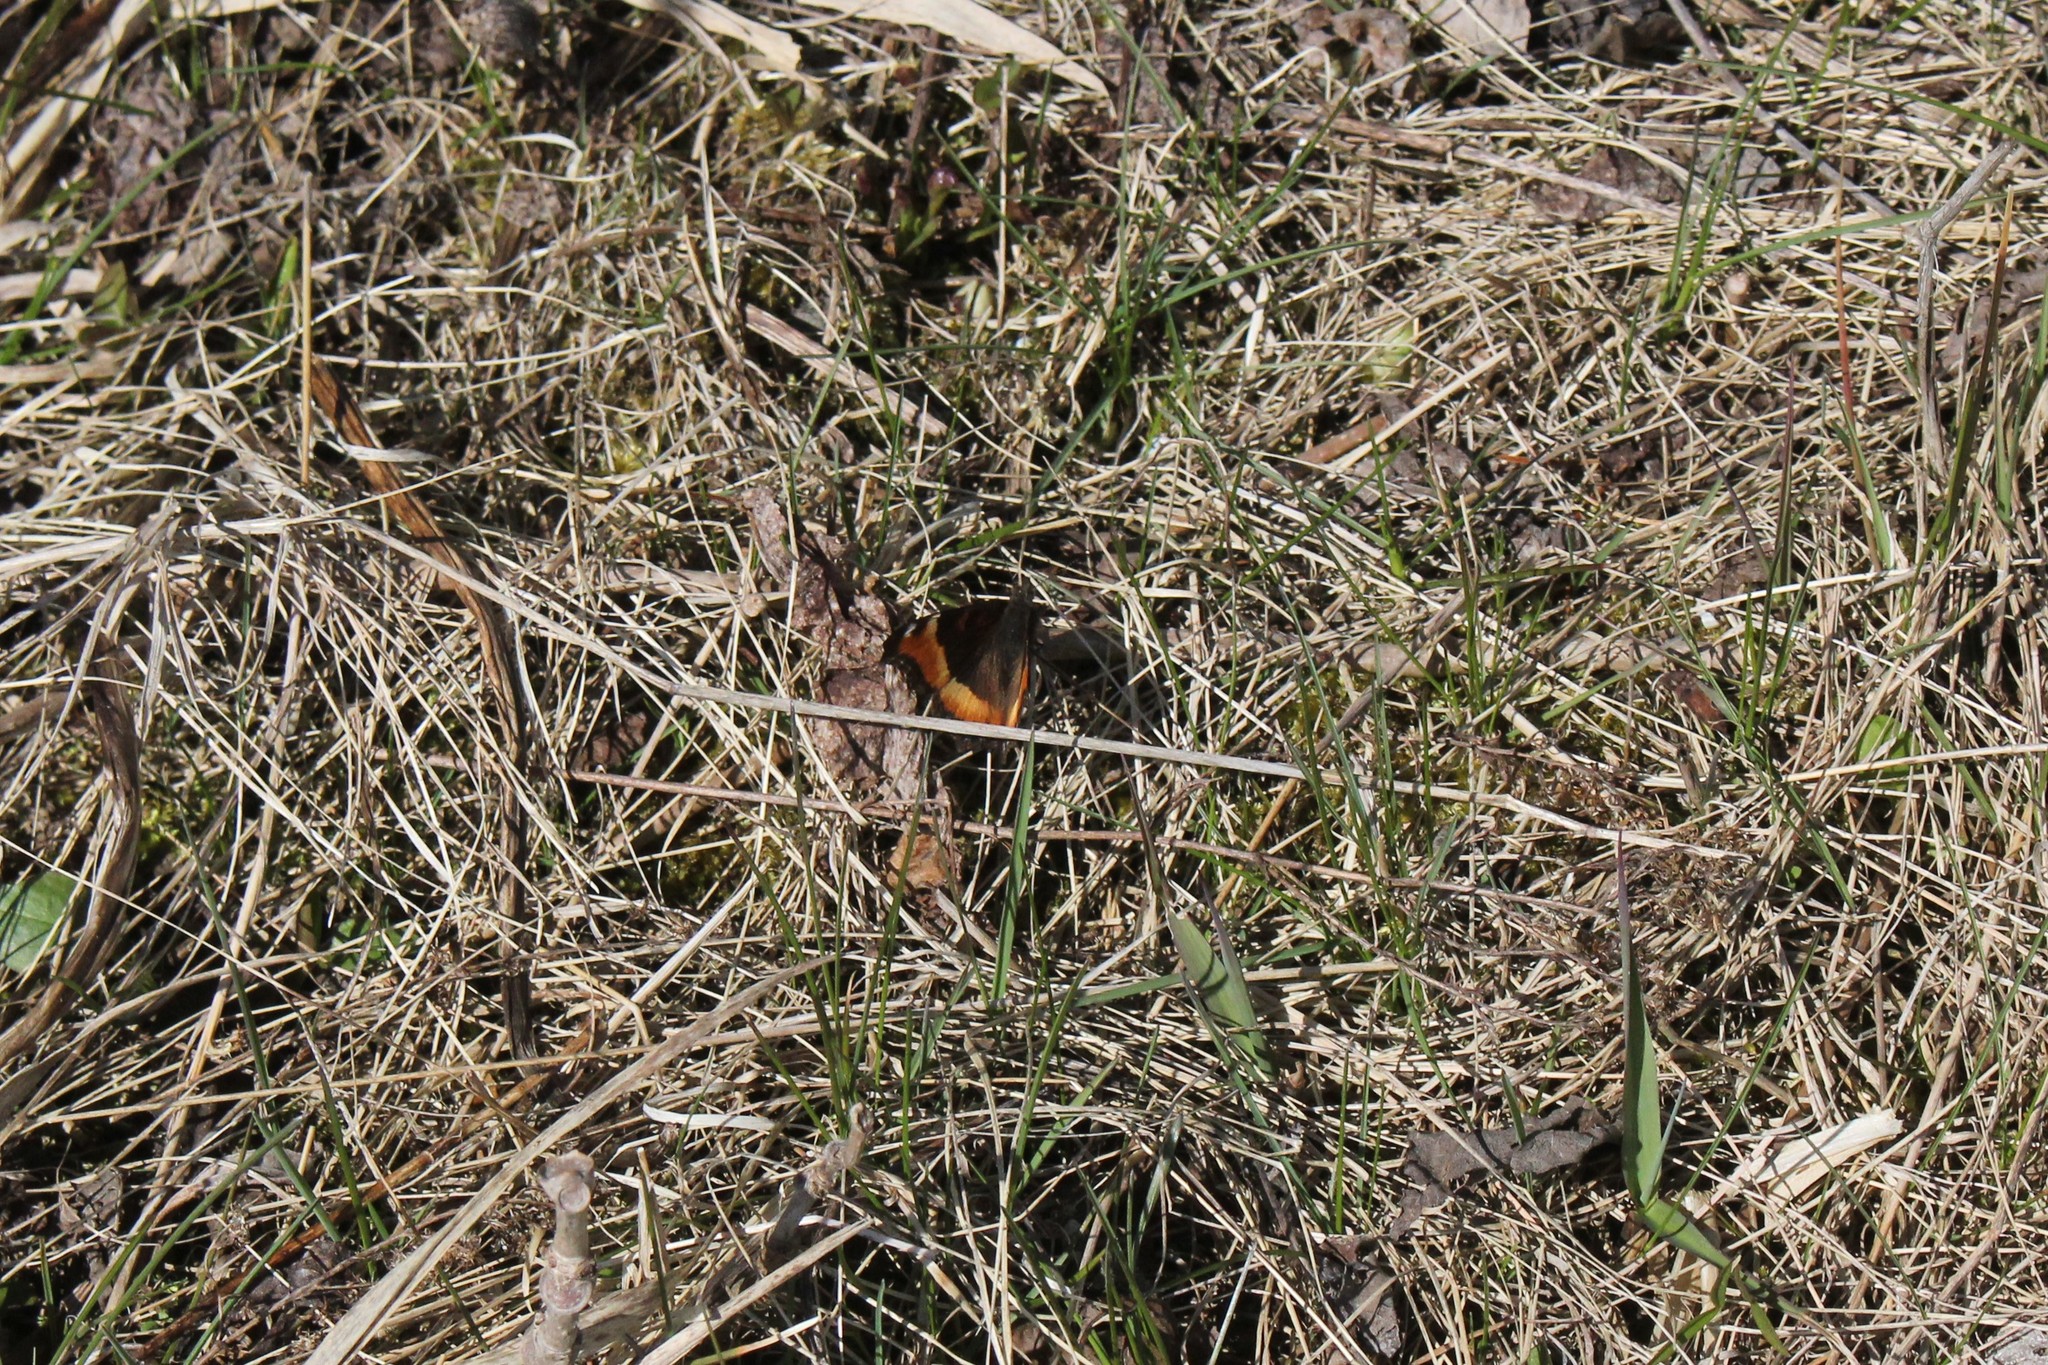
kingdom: Animalia
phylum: Arthropoda
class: Insecta
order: Lepidoptera
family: Nymphalidae
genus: Aglais
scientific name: Aglais milberti
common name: Milbert's tortoiseshell
